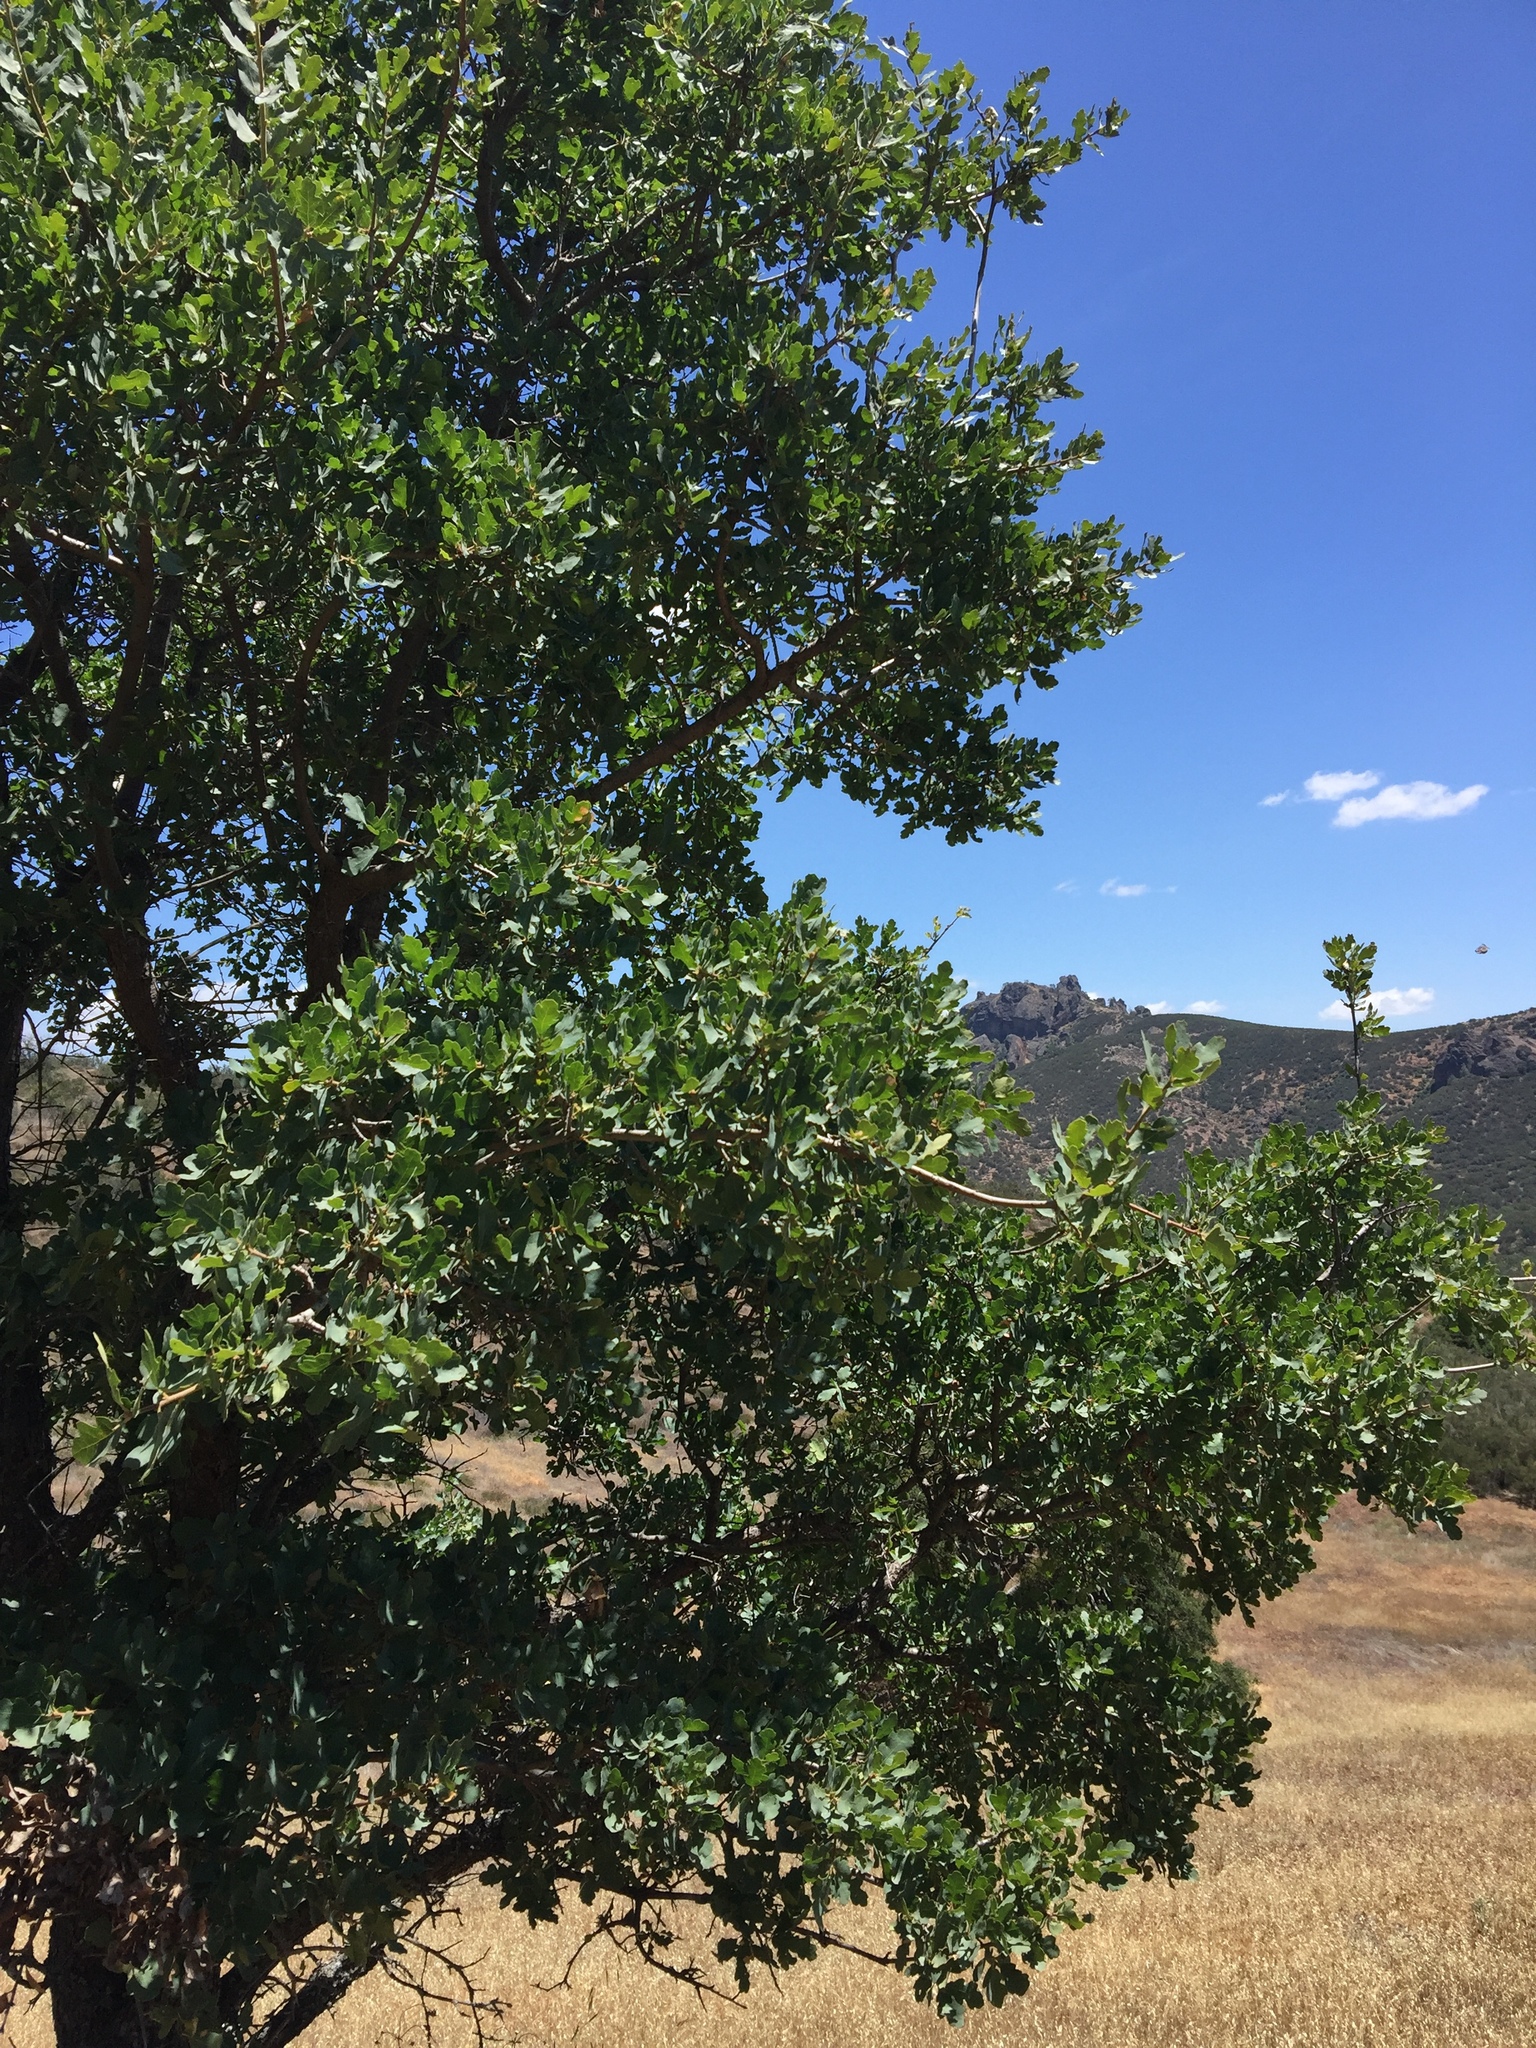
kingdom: Plantae
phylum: Tracheophyta
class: Magnoliopsida
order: Fagales
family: Fagaceae
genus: Quercus
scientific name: Quercus douglasii
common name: Blue oak
